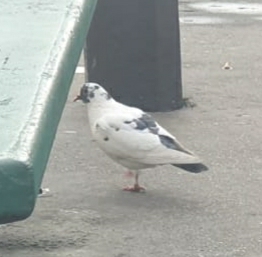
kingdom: Animalia
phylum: Chordata
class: Aves
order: Columbiformes
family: Columbidae
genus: Columba
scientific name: Columba livia
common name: Rock pigeon
